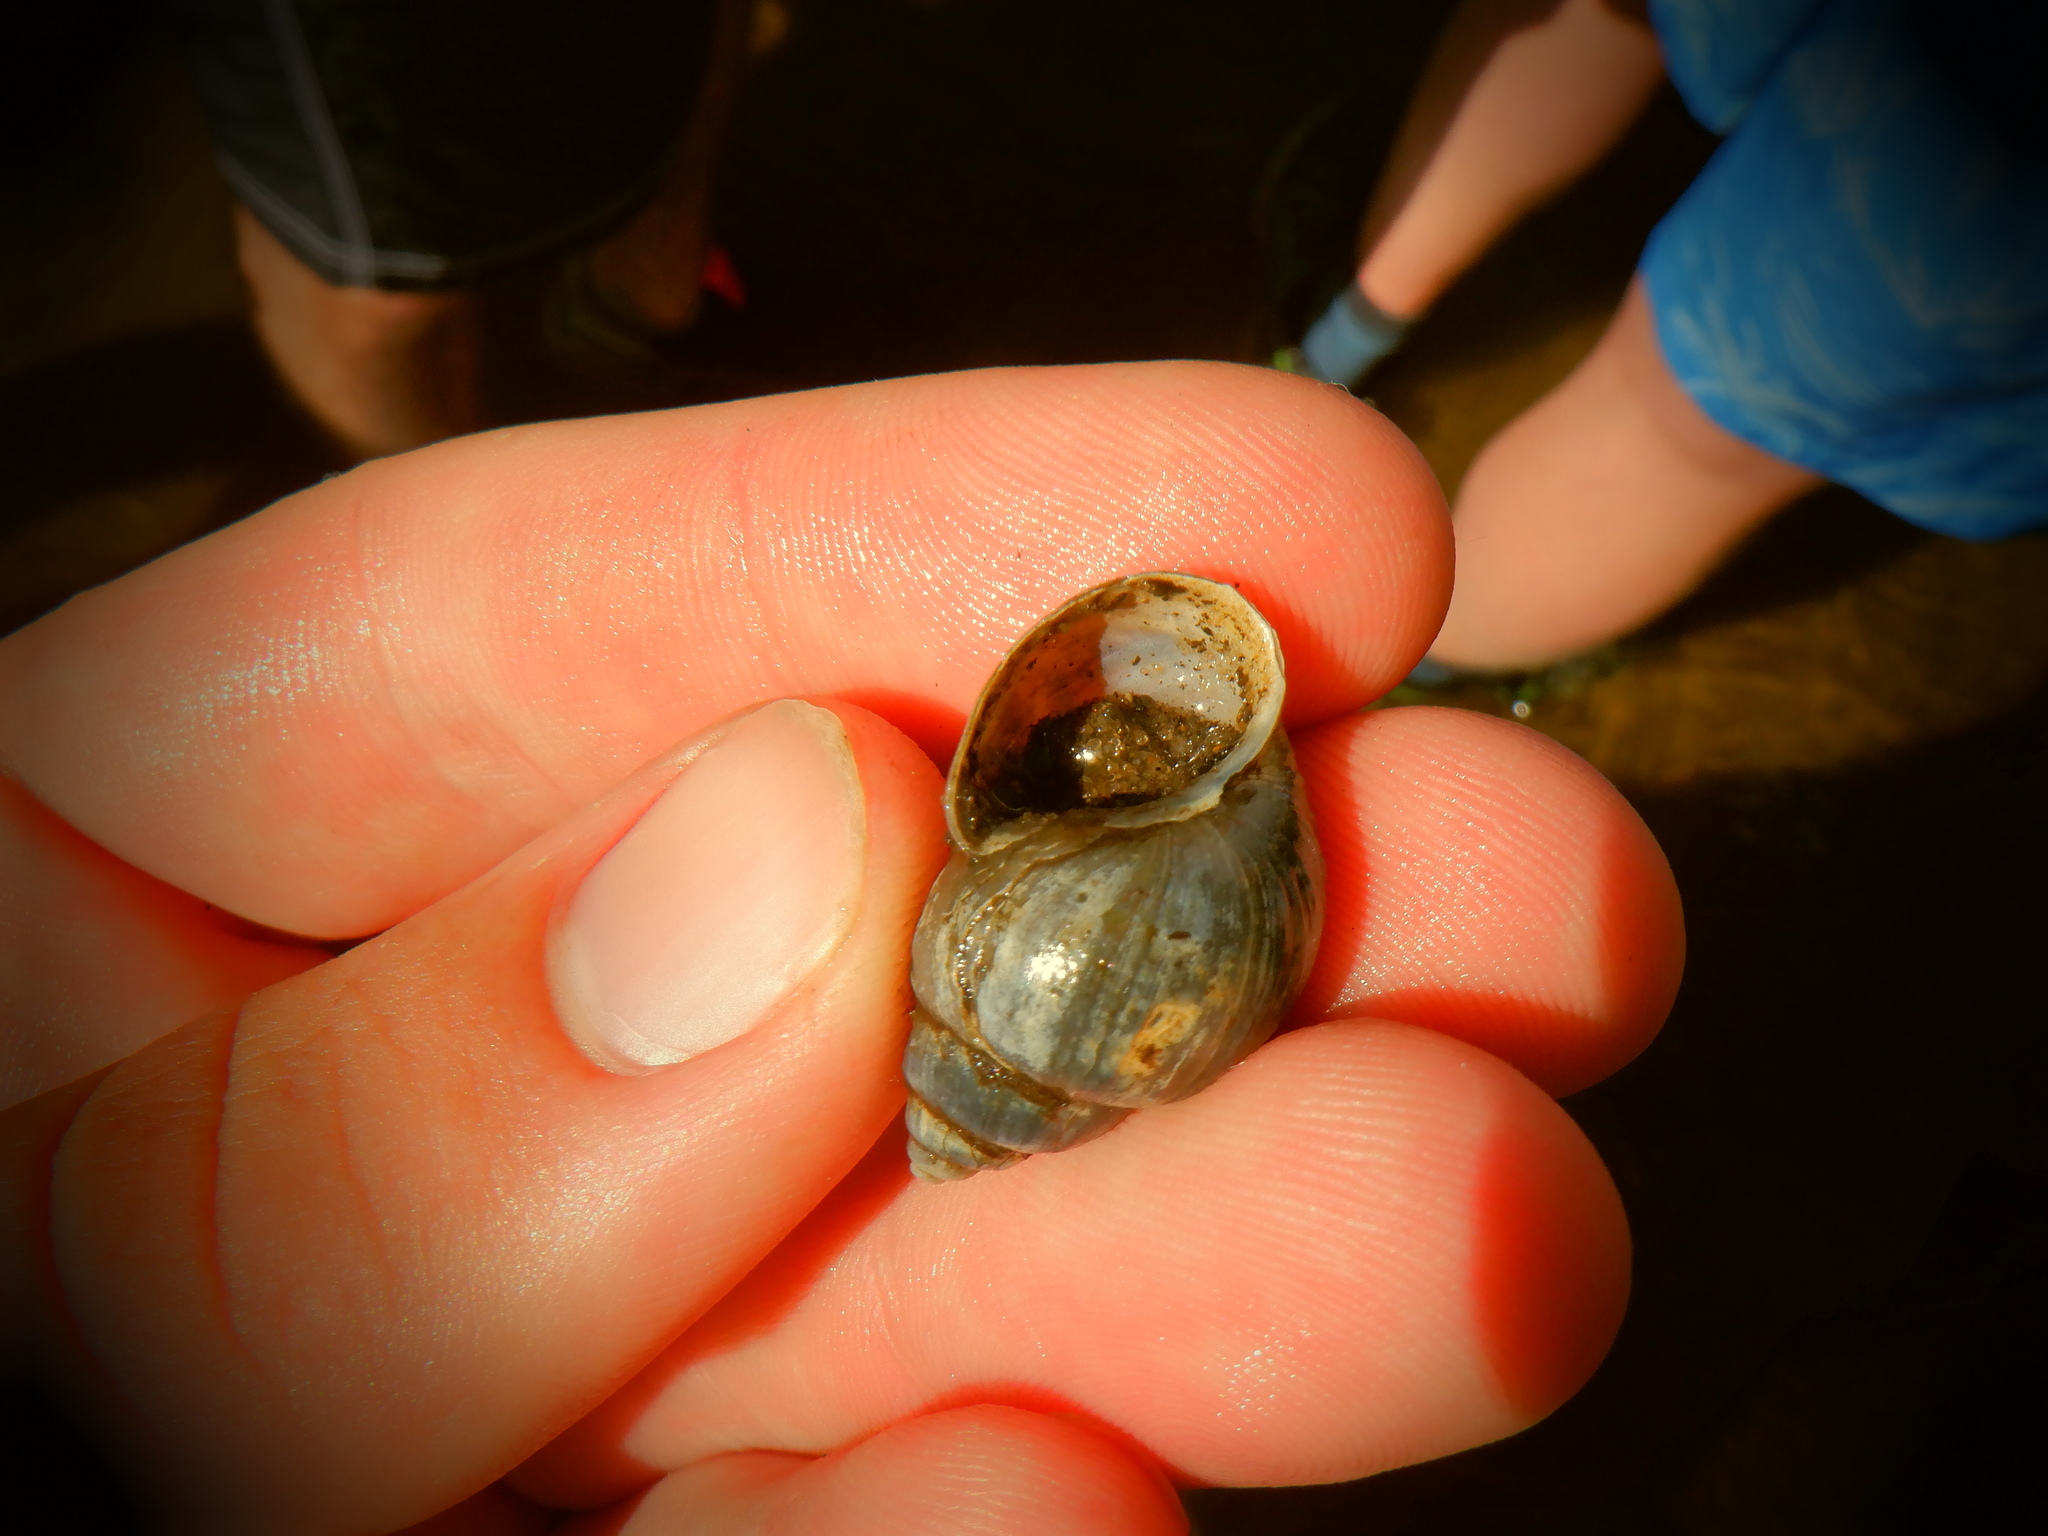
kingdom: Animalia
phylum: Mollusca
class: Gastropoda
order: Architaenioglossa
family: Viviparidae
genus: Campeloma
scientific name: Campeloma decisum
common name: Pointed campeloma
